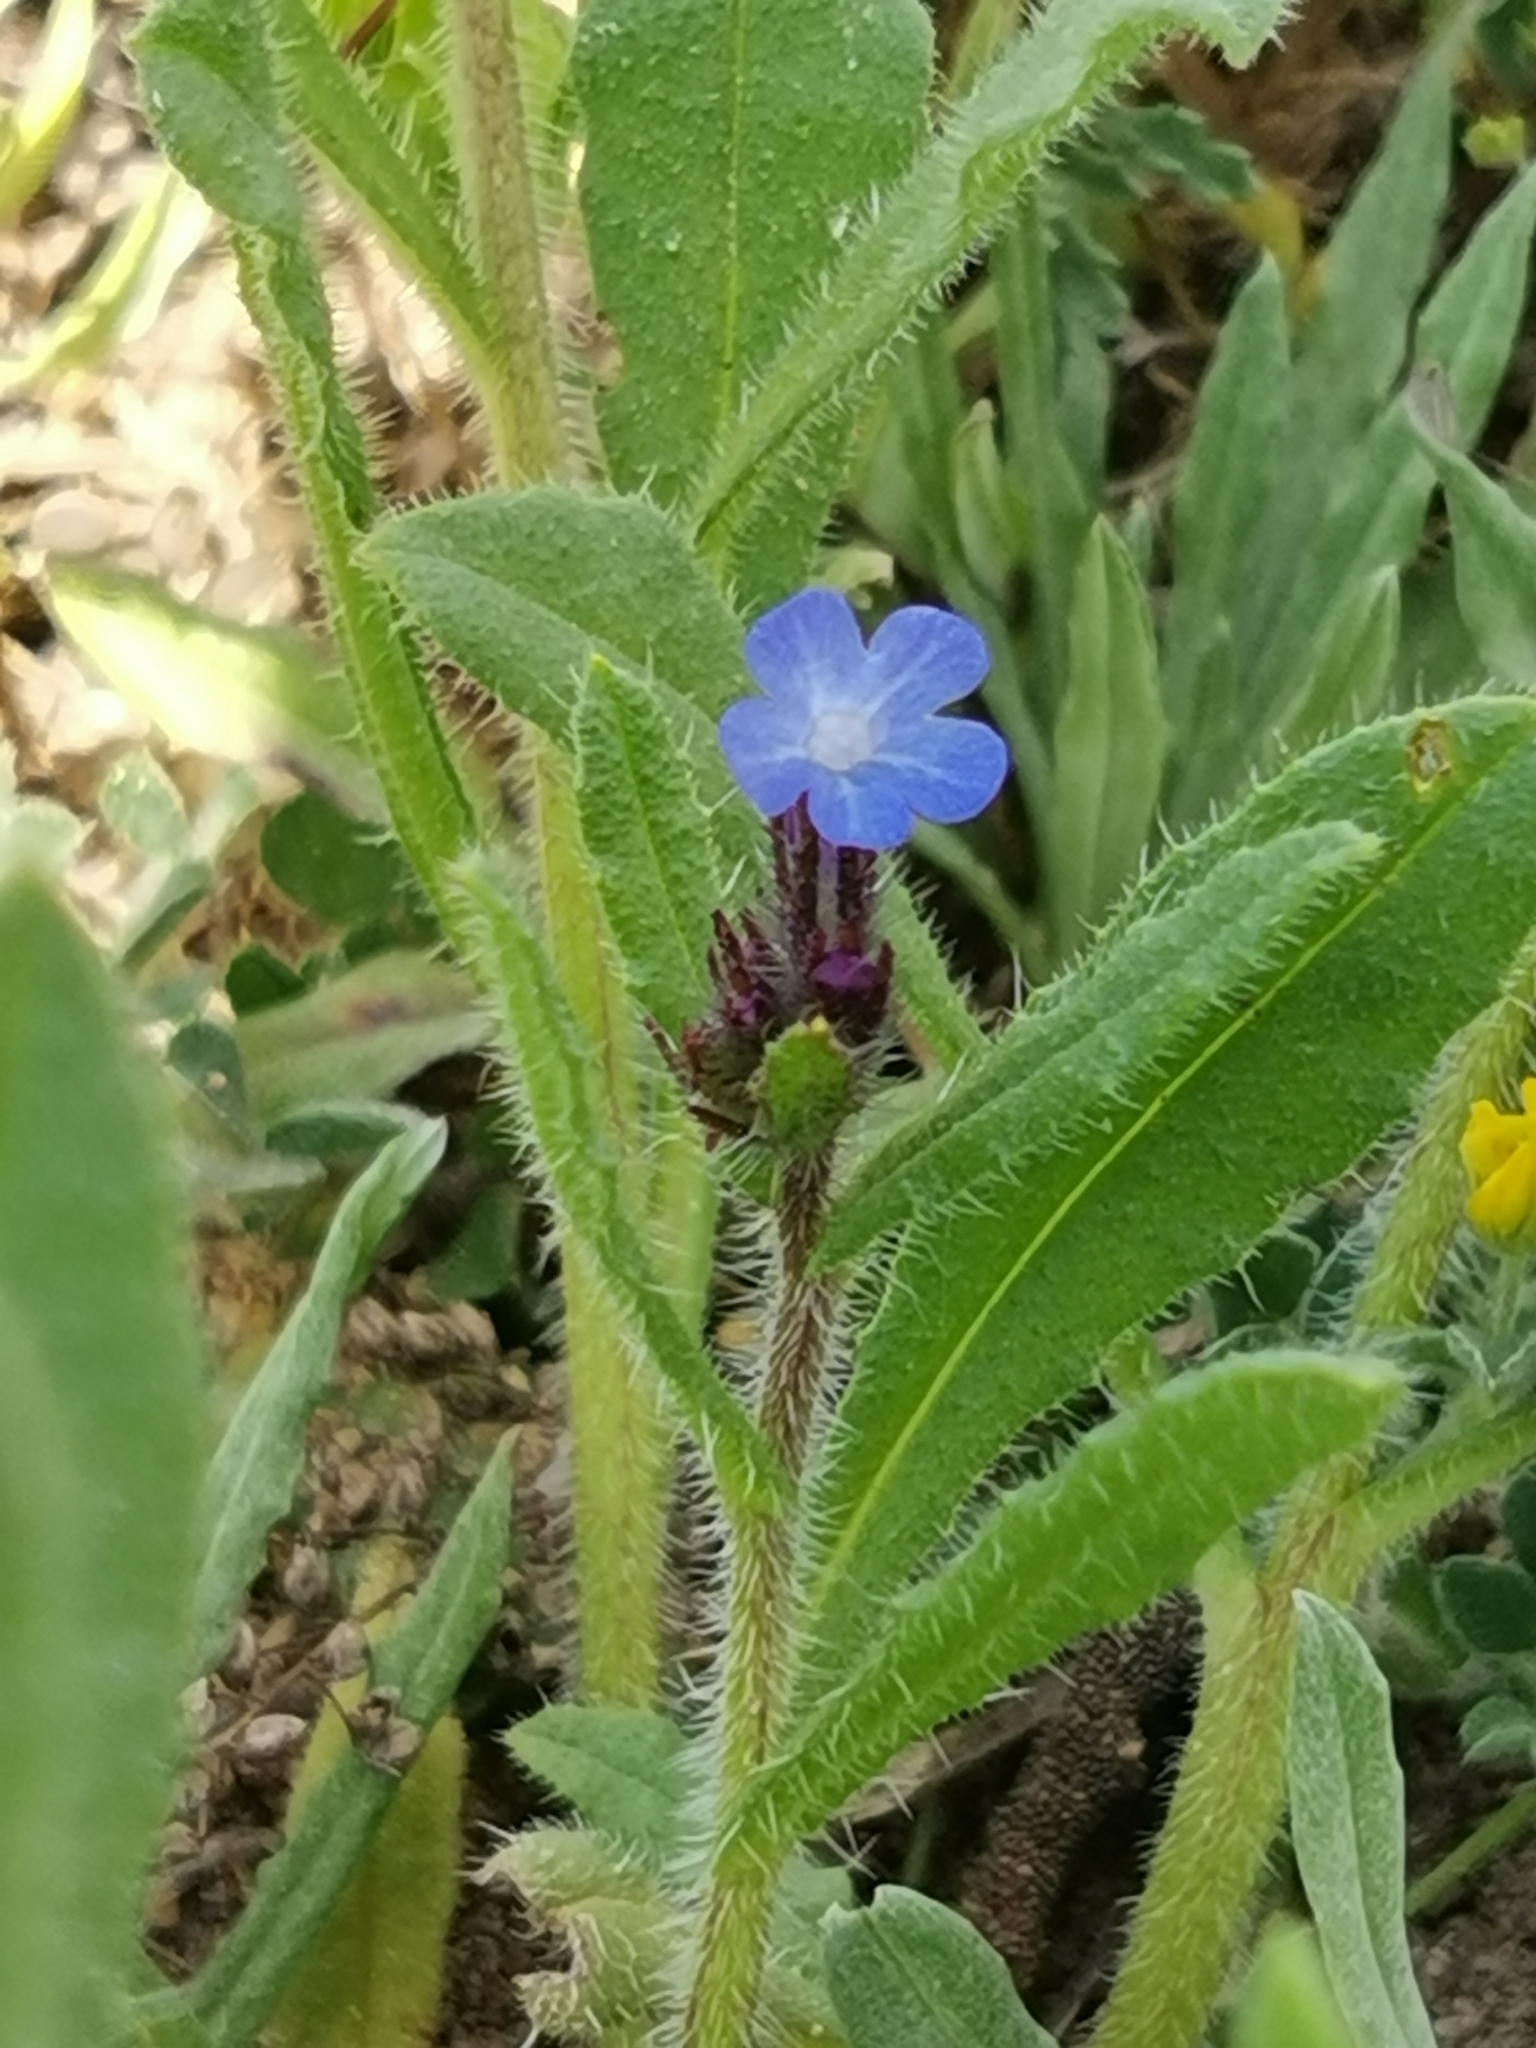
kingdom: Plantae
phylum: Tracheophyta
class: Magnoliopsida
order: Boraginales
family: Boraginaceae
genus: Lycopsis
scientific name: Lycopsis arvensis
